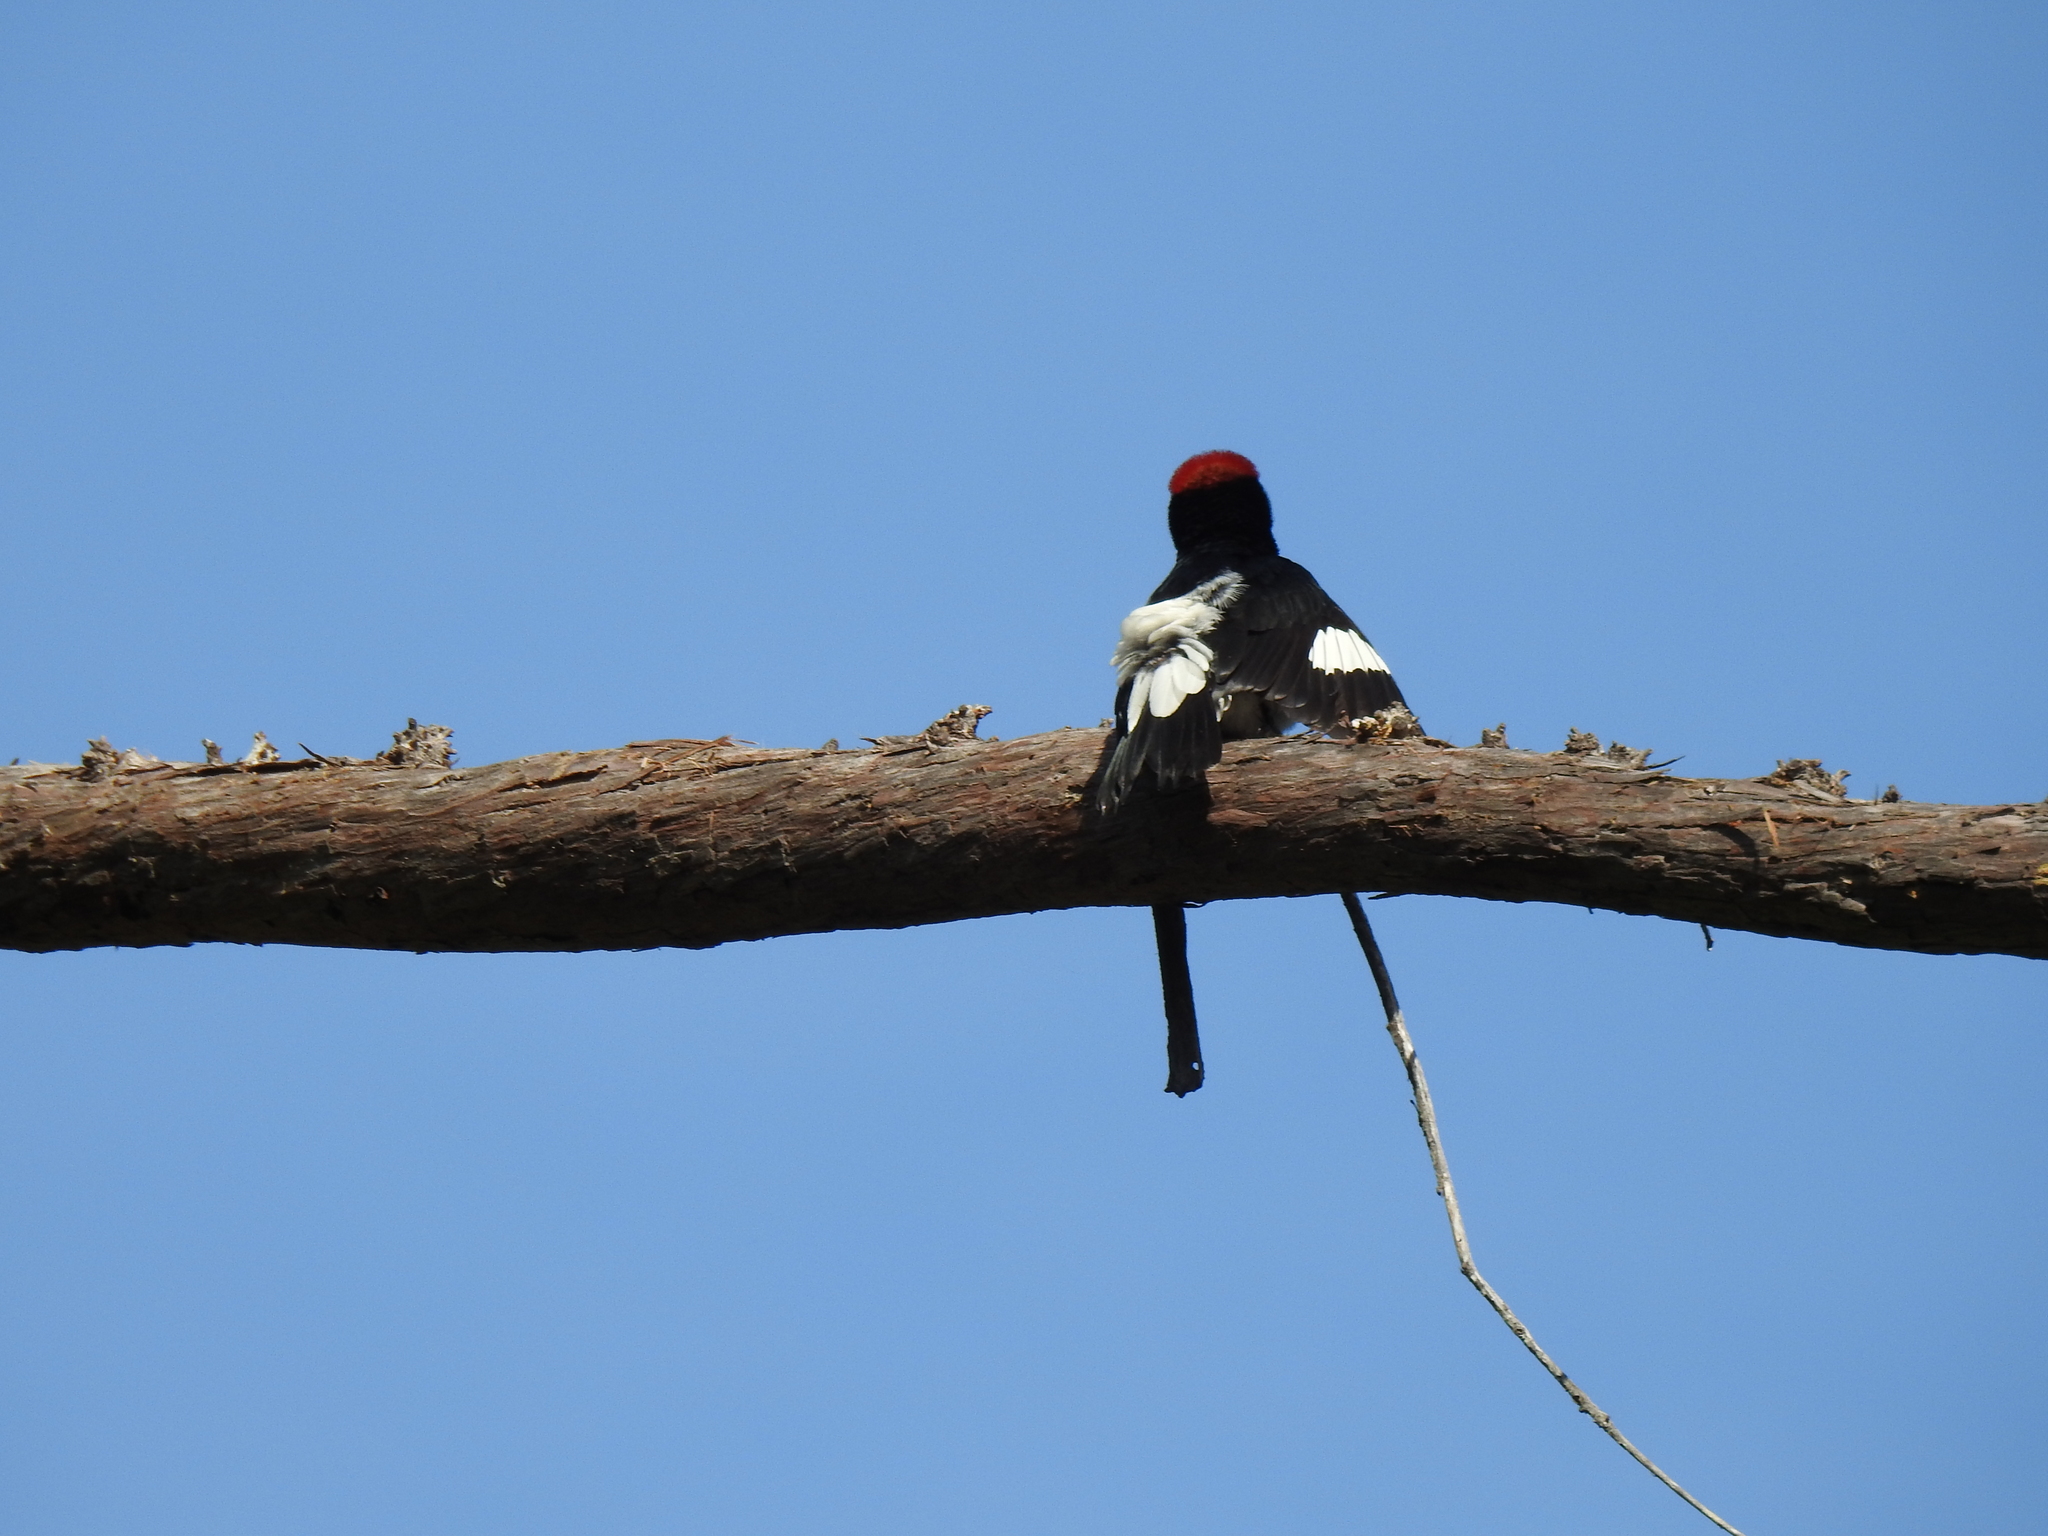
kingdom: Animalia
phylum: Chordata
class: Aves
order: Piciformes
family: Picidae
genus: Melanerpes
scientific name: Melanerpes formicivorus
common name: Acorn woodpecker
